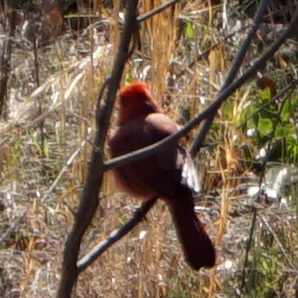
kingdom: Animalia
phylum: Chordata
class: Aves
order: Passeriformes
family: Cardinalidae
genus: Cardinalis
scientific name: Cardinalis cardinalis
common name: Northern cardinal
